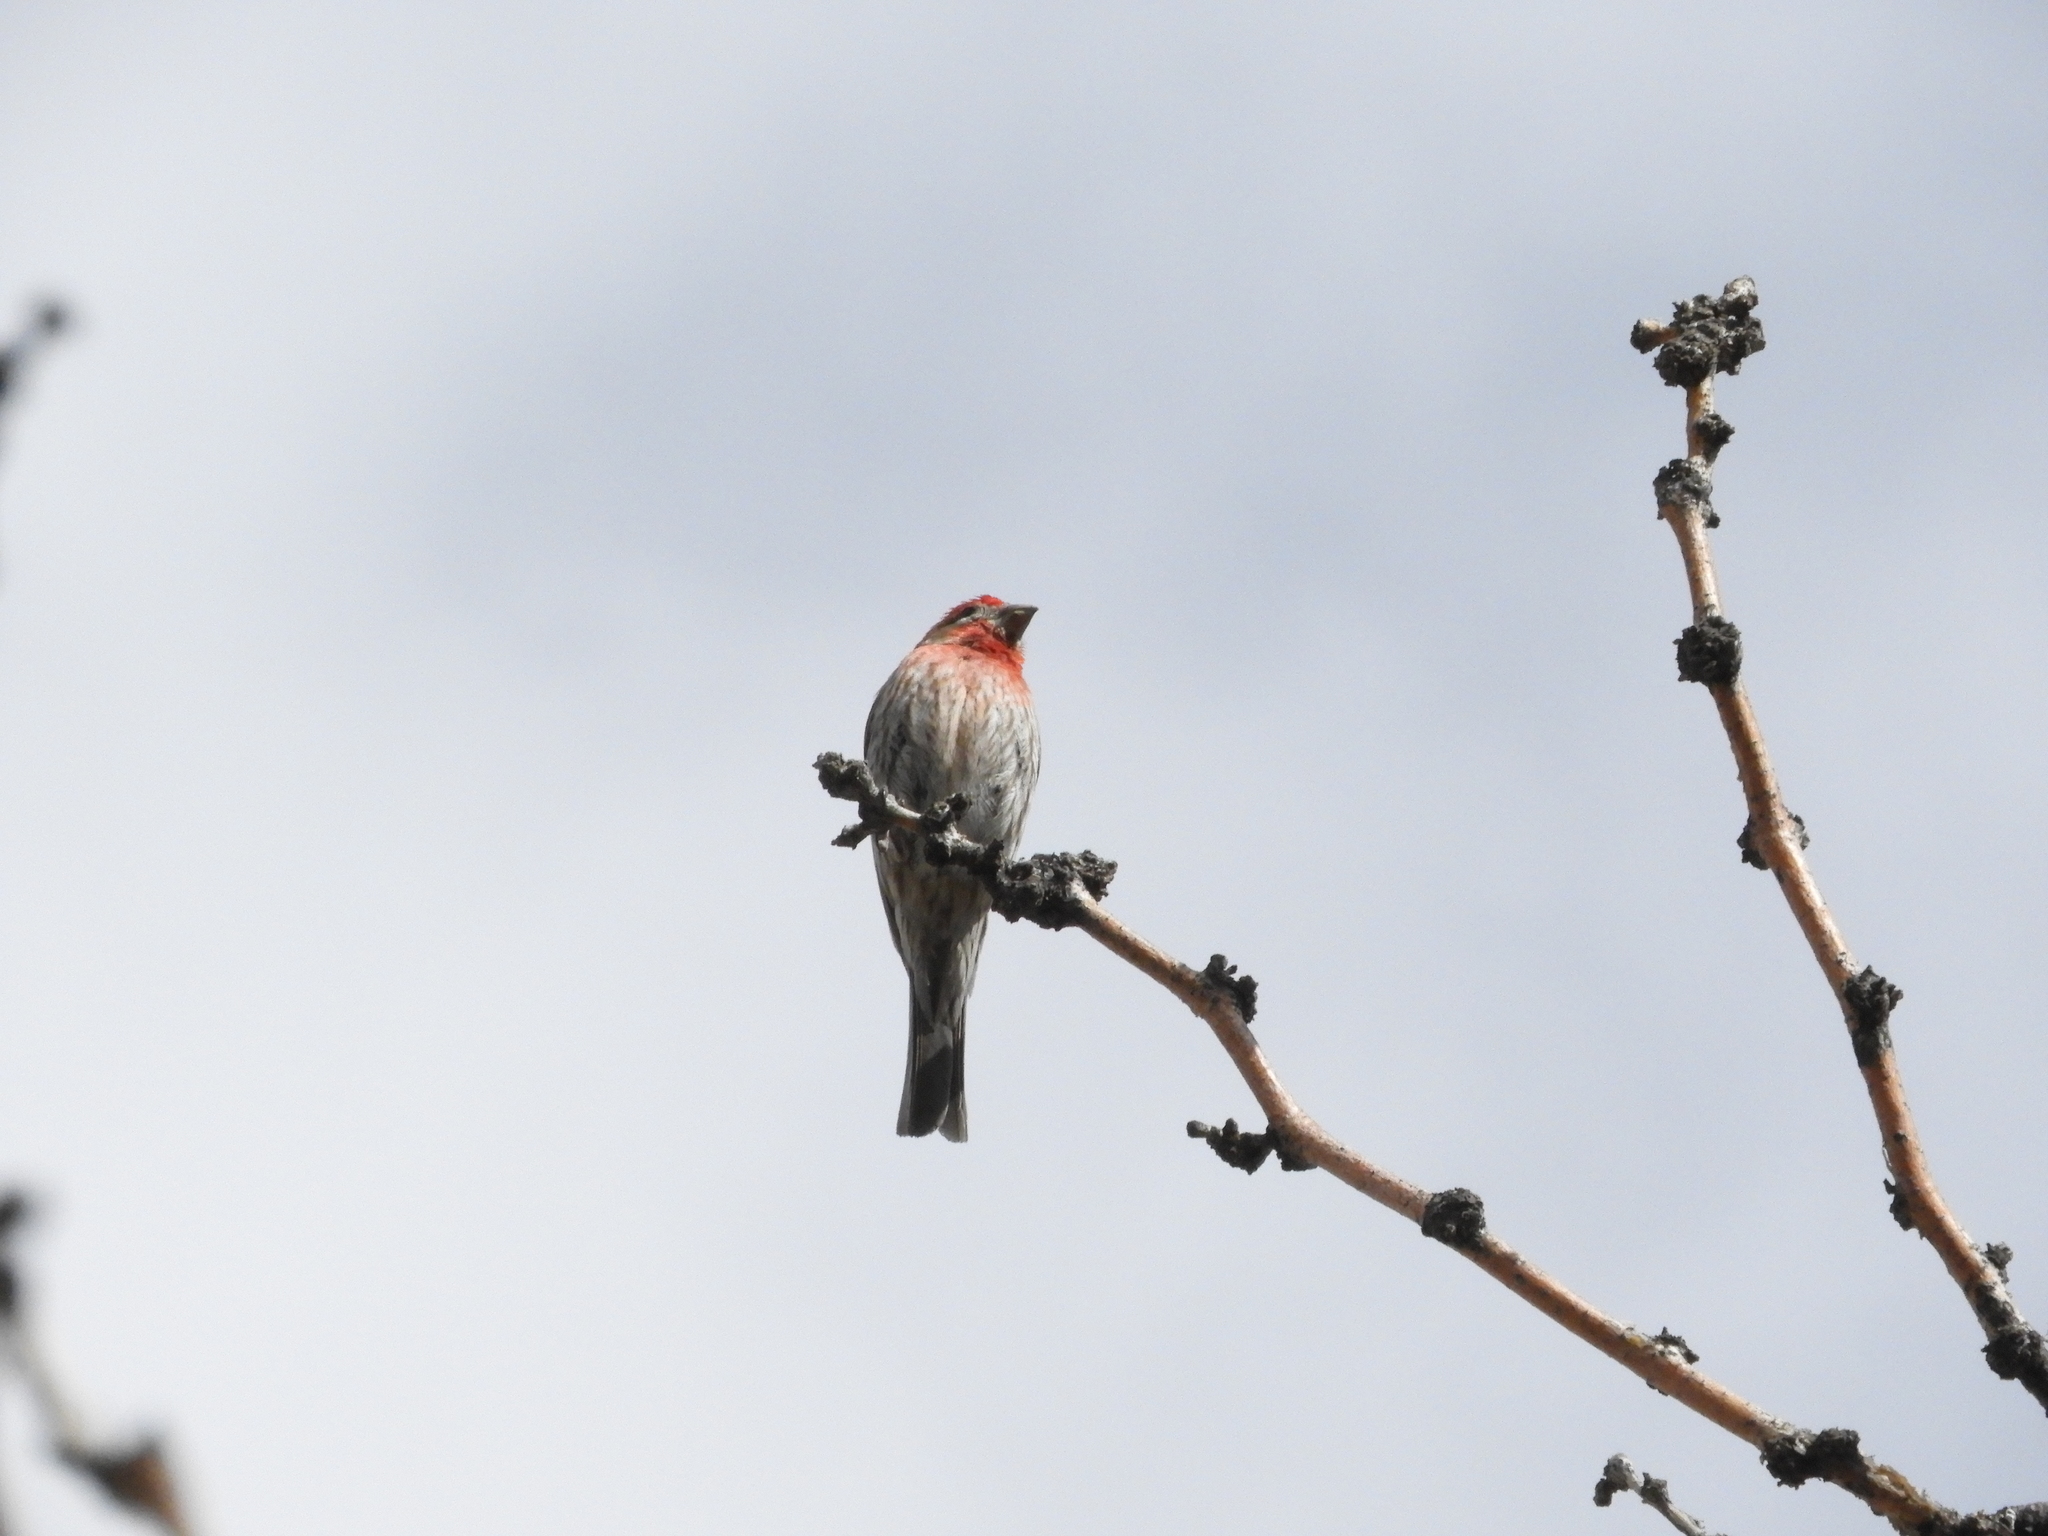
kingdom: Animalia
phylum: Chordata
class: Aves
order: Passeriformes
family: Fringillidae
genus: Haemorhous
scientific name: Haemorhous mexicanus
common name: House finch
